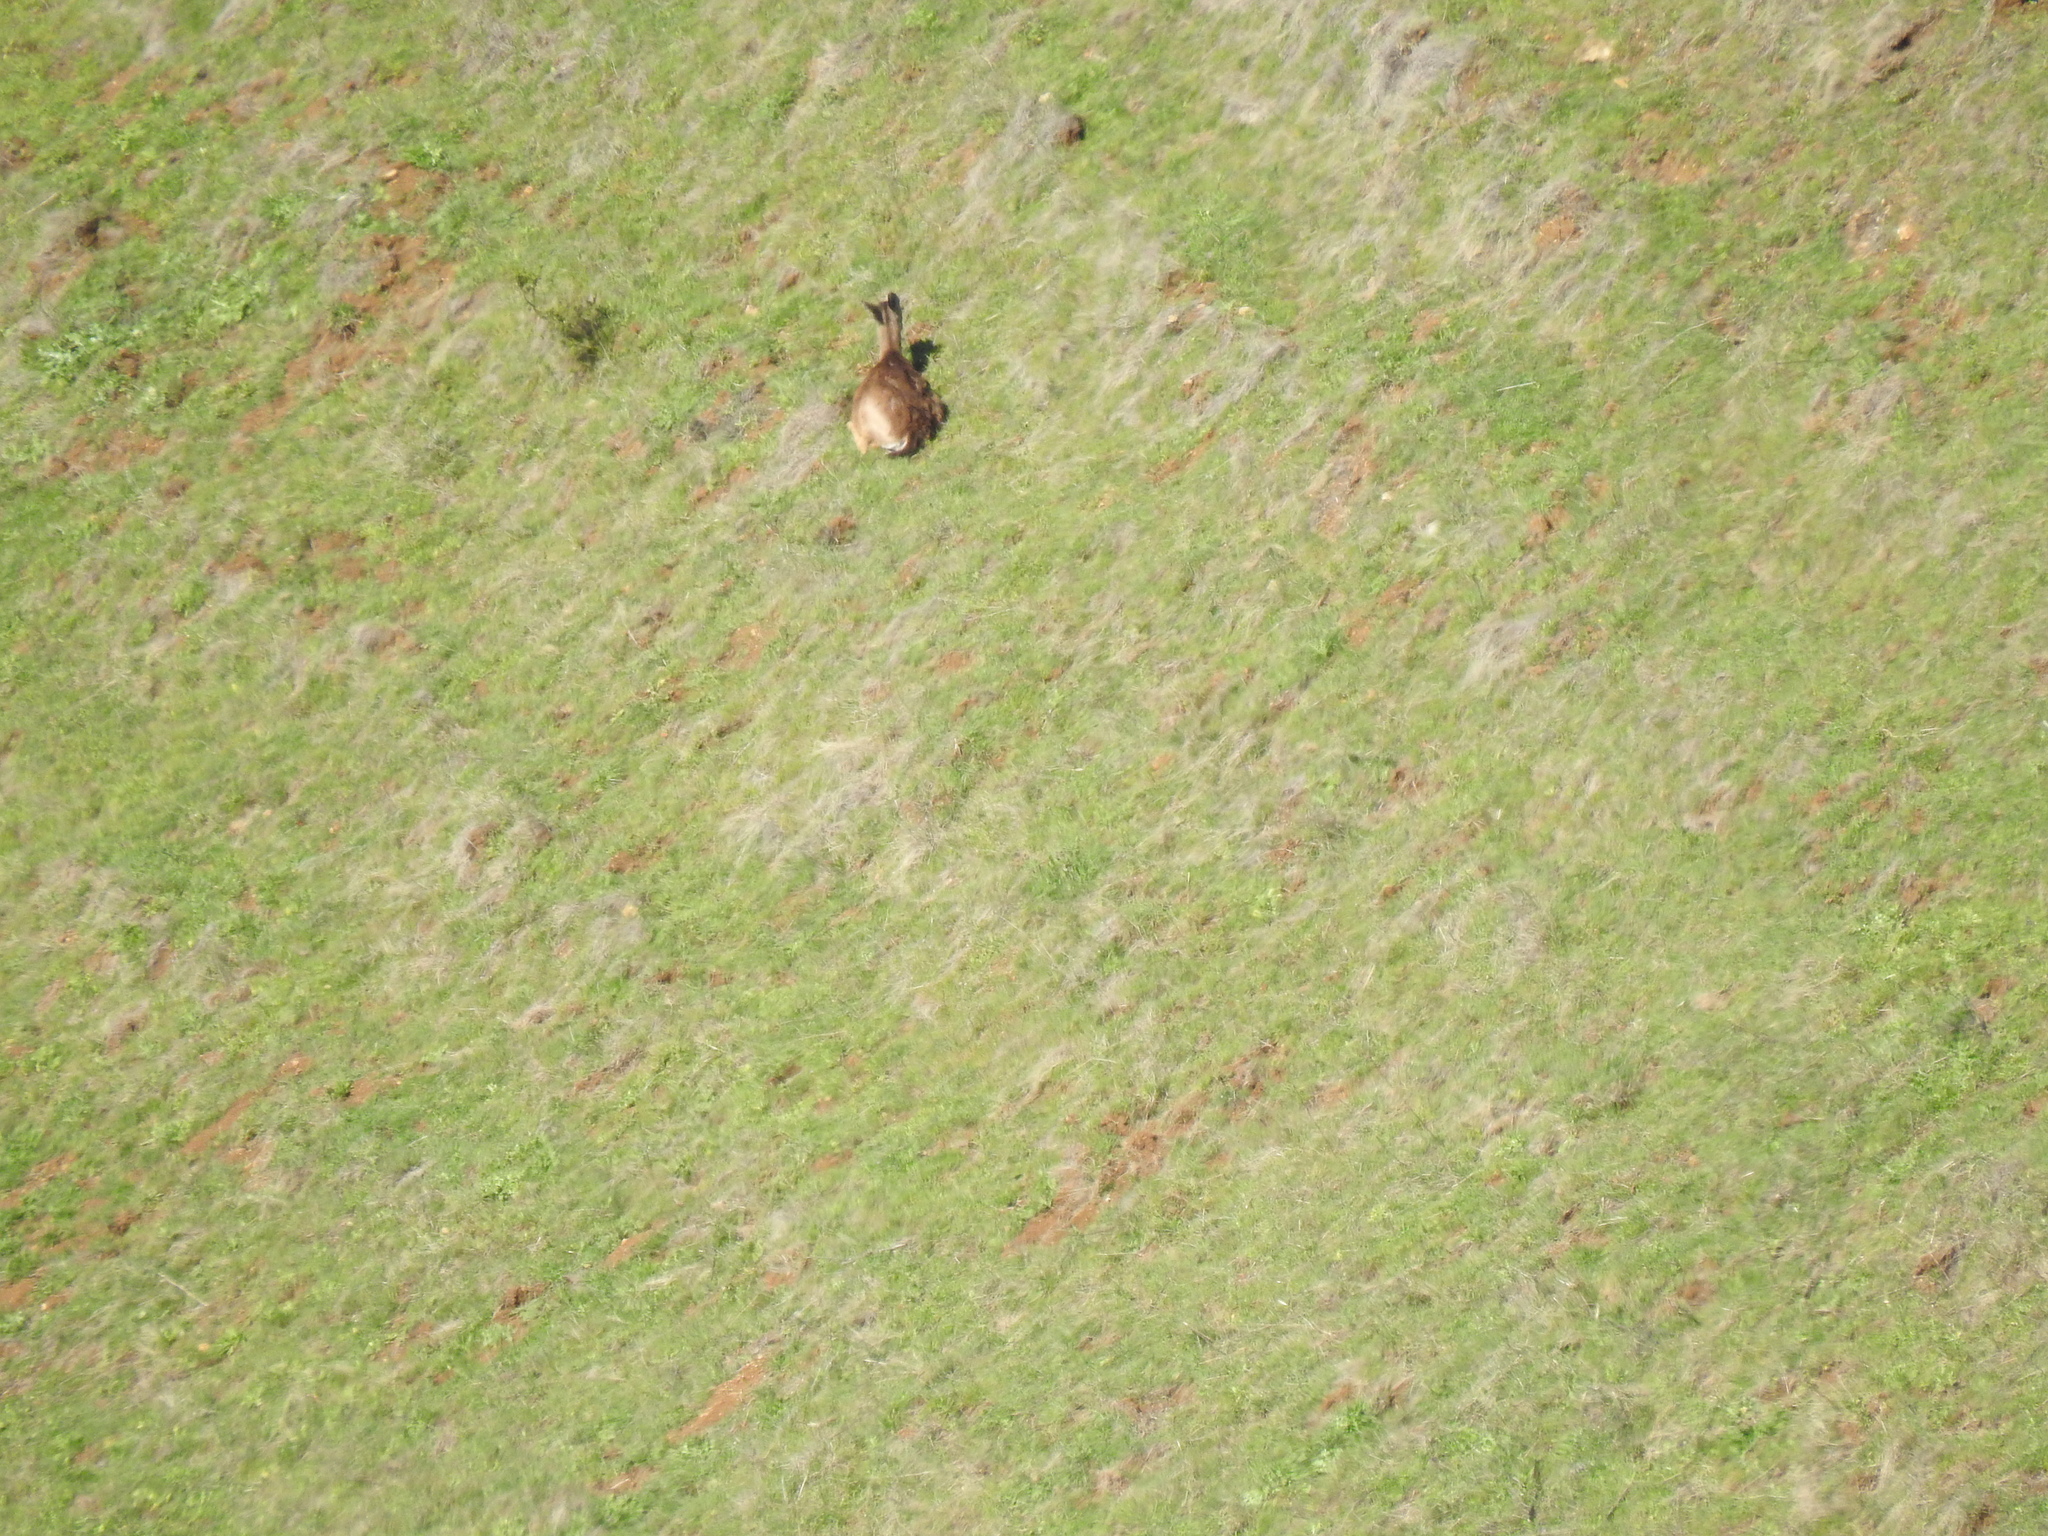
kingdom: Animalia
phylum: Chordata
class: Mammalia
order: Artiodactyla
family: Cervidae
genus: Odocoileus
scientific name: Odocoileus hemionus
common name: Mule deer
